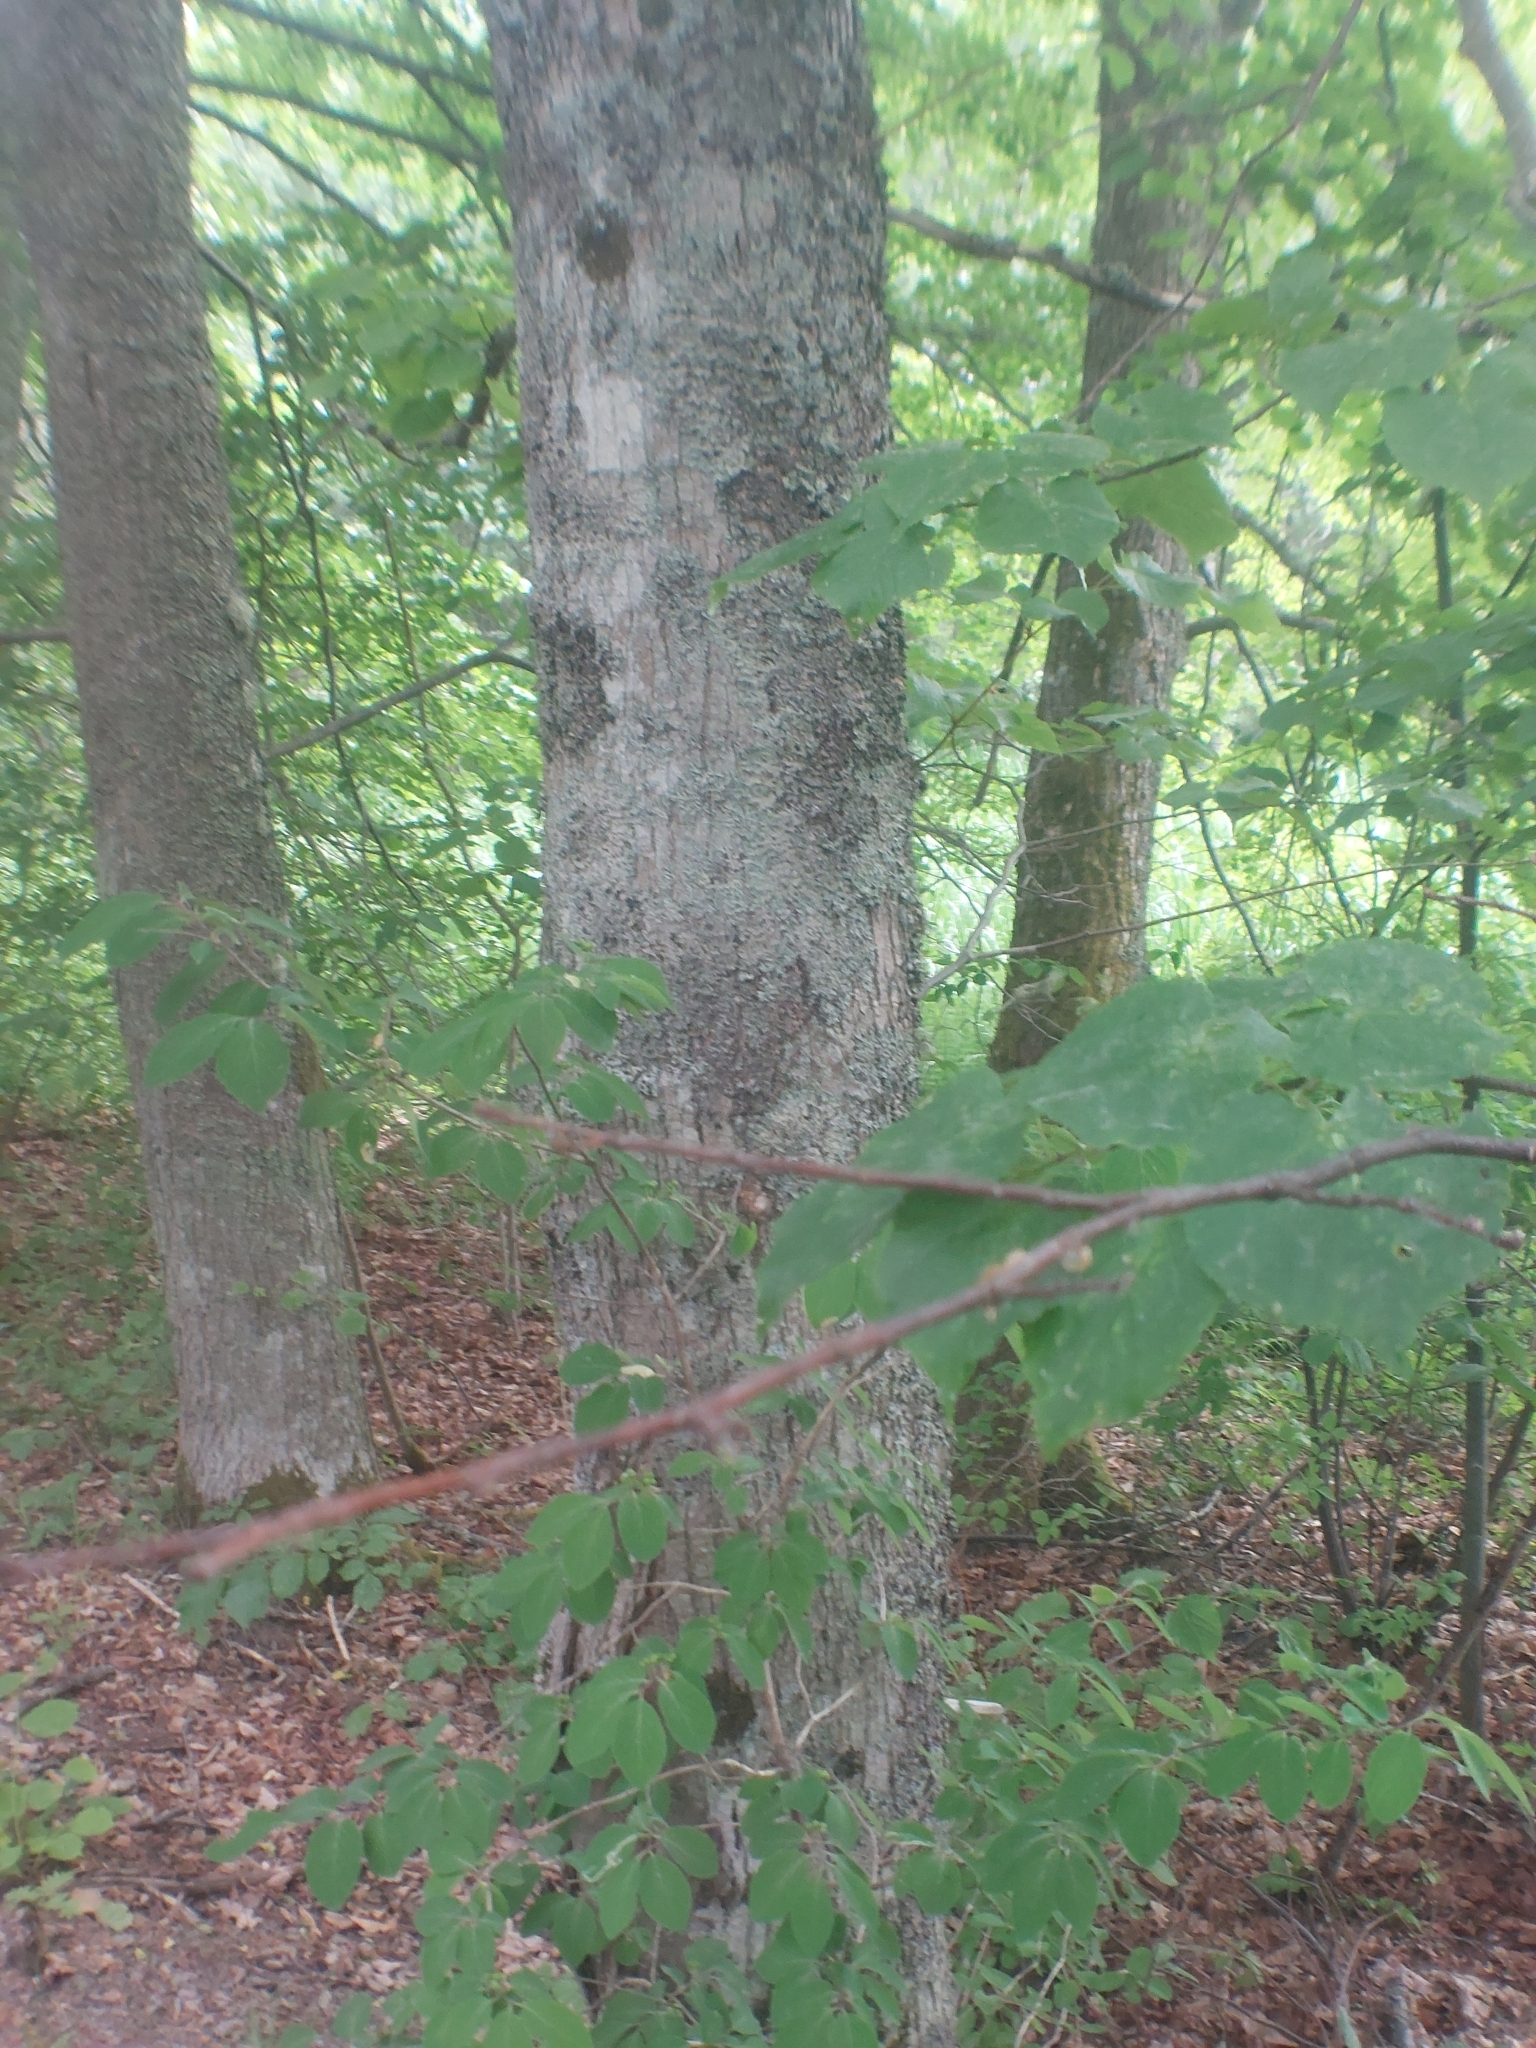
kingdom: Plantae
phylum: Tracheophyta
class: Magnoliopsida
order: Malvales
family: Malvaceae
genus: Tilia
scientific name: Tilia cordata
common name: Small-leaved lime
